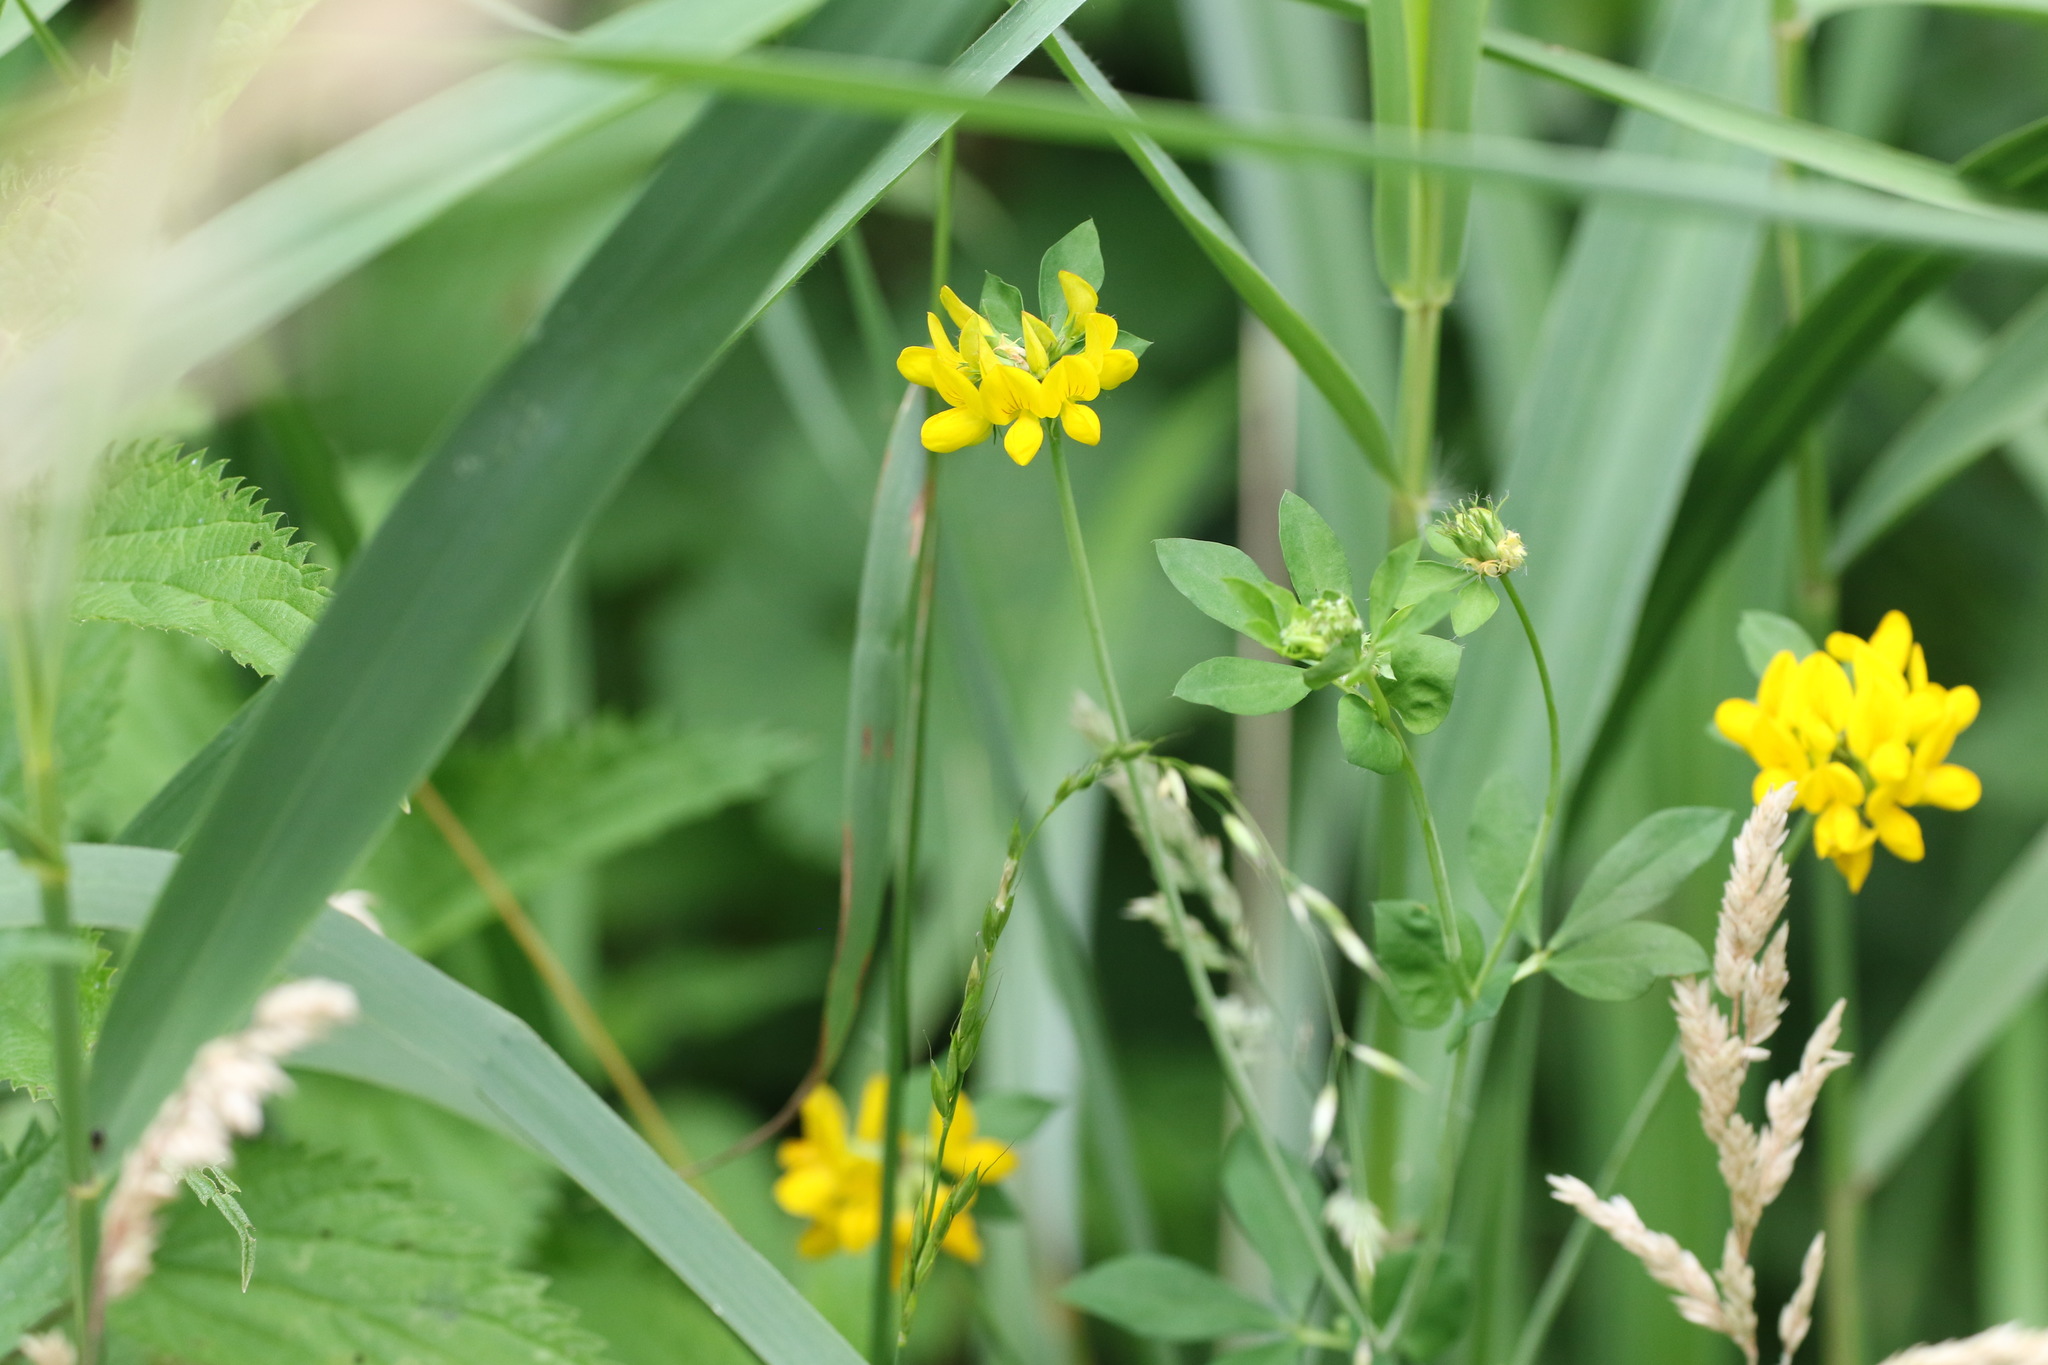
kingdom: Plantae
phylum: Tracheophyta
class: Magnoliopsida
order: Fabales
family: Fabaceae
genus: Lotus
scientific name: Lotus pedunculatus
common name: Greater birdsfoot-trefoil
